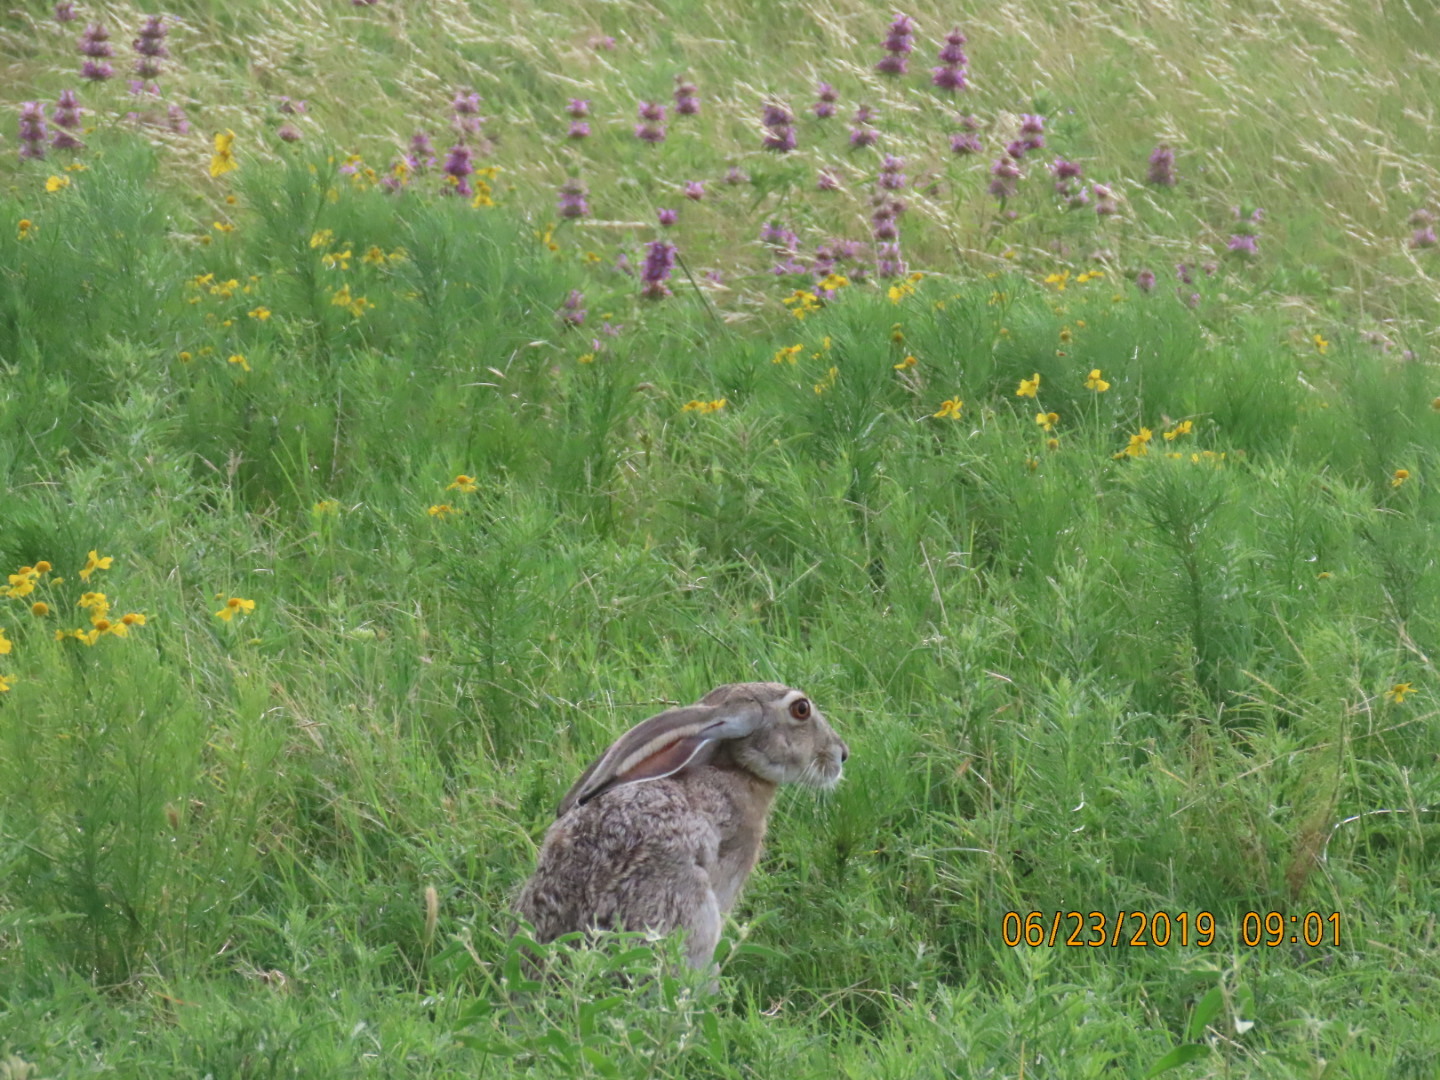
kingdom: Animalia
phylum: Chordata
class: Mammalia
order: Lagomorpha
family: Leporidae
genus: Lepus
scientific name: Lepus californicus
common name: Black-tailed jackrabbit
